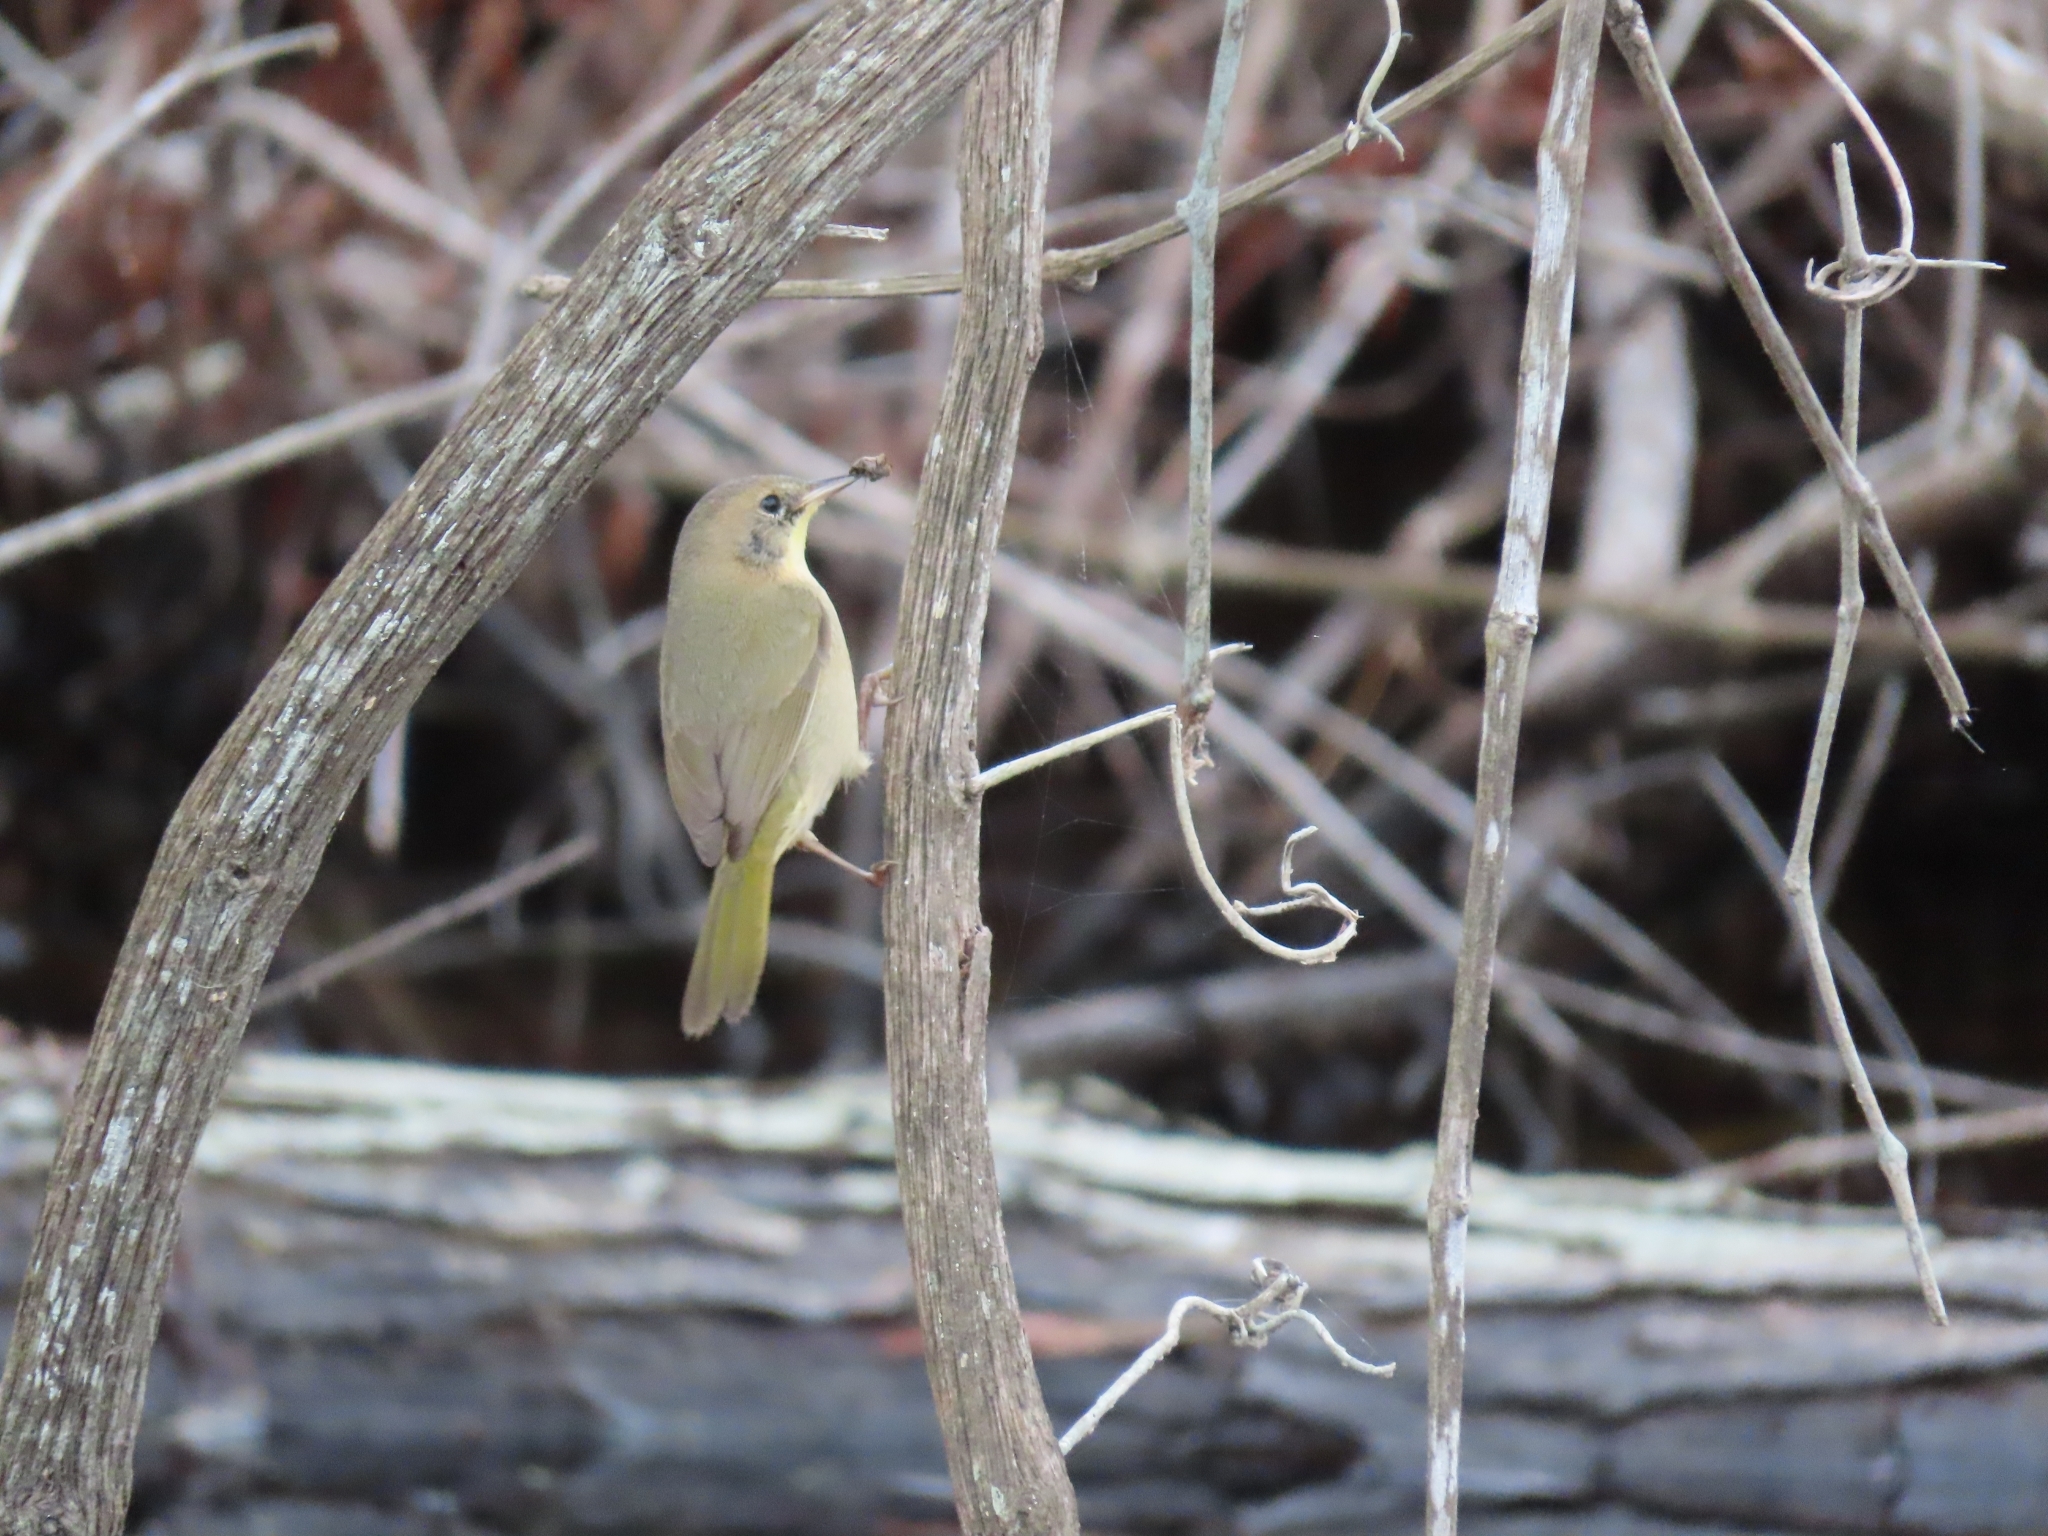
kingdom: Animalia
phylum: Chordata
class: Aves
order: Passeriformes
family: Parulidae
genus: Geothlypis
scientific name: Geothlypis trichas
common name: Common yellowthroat
